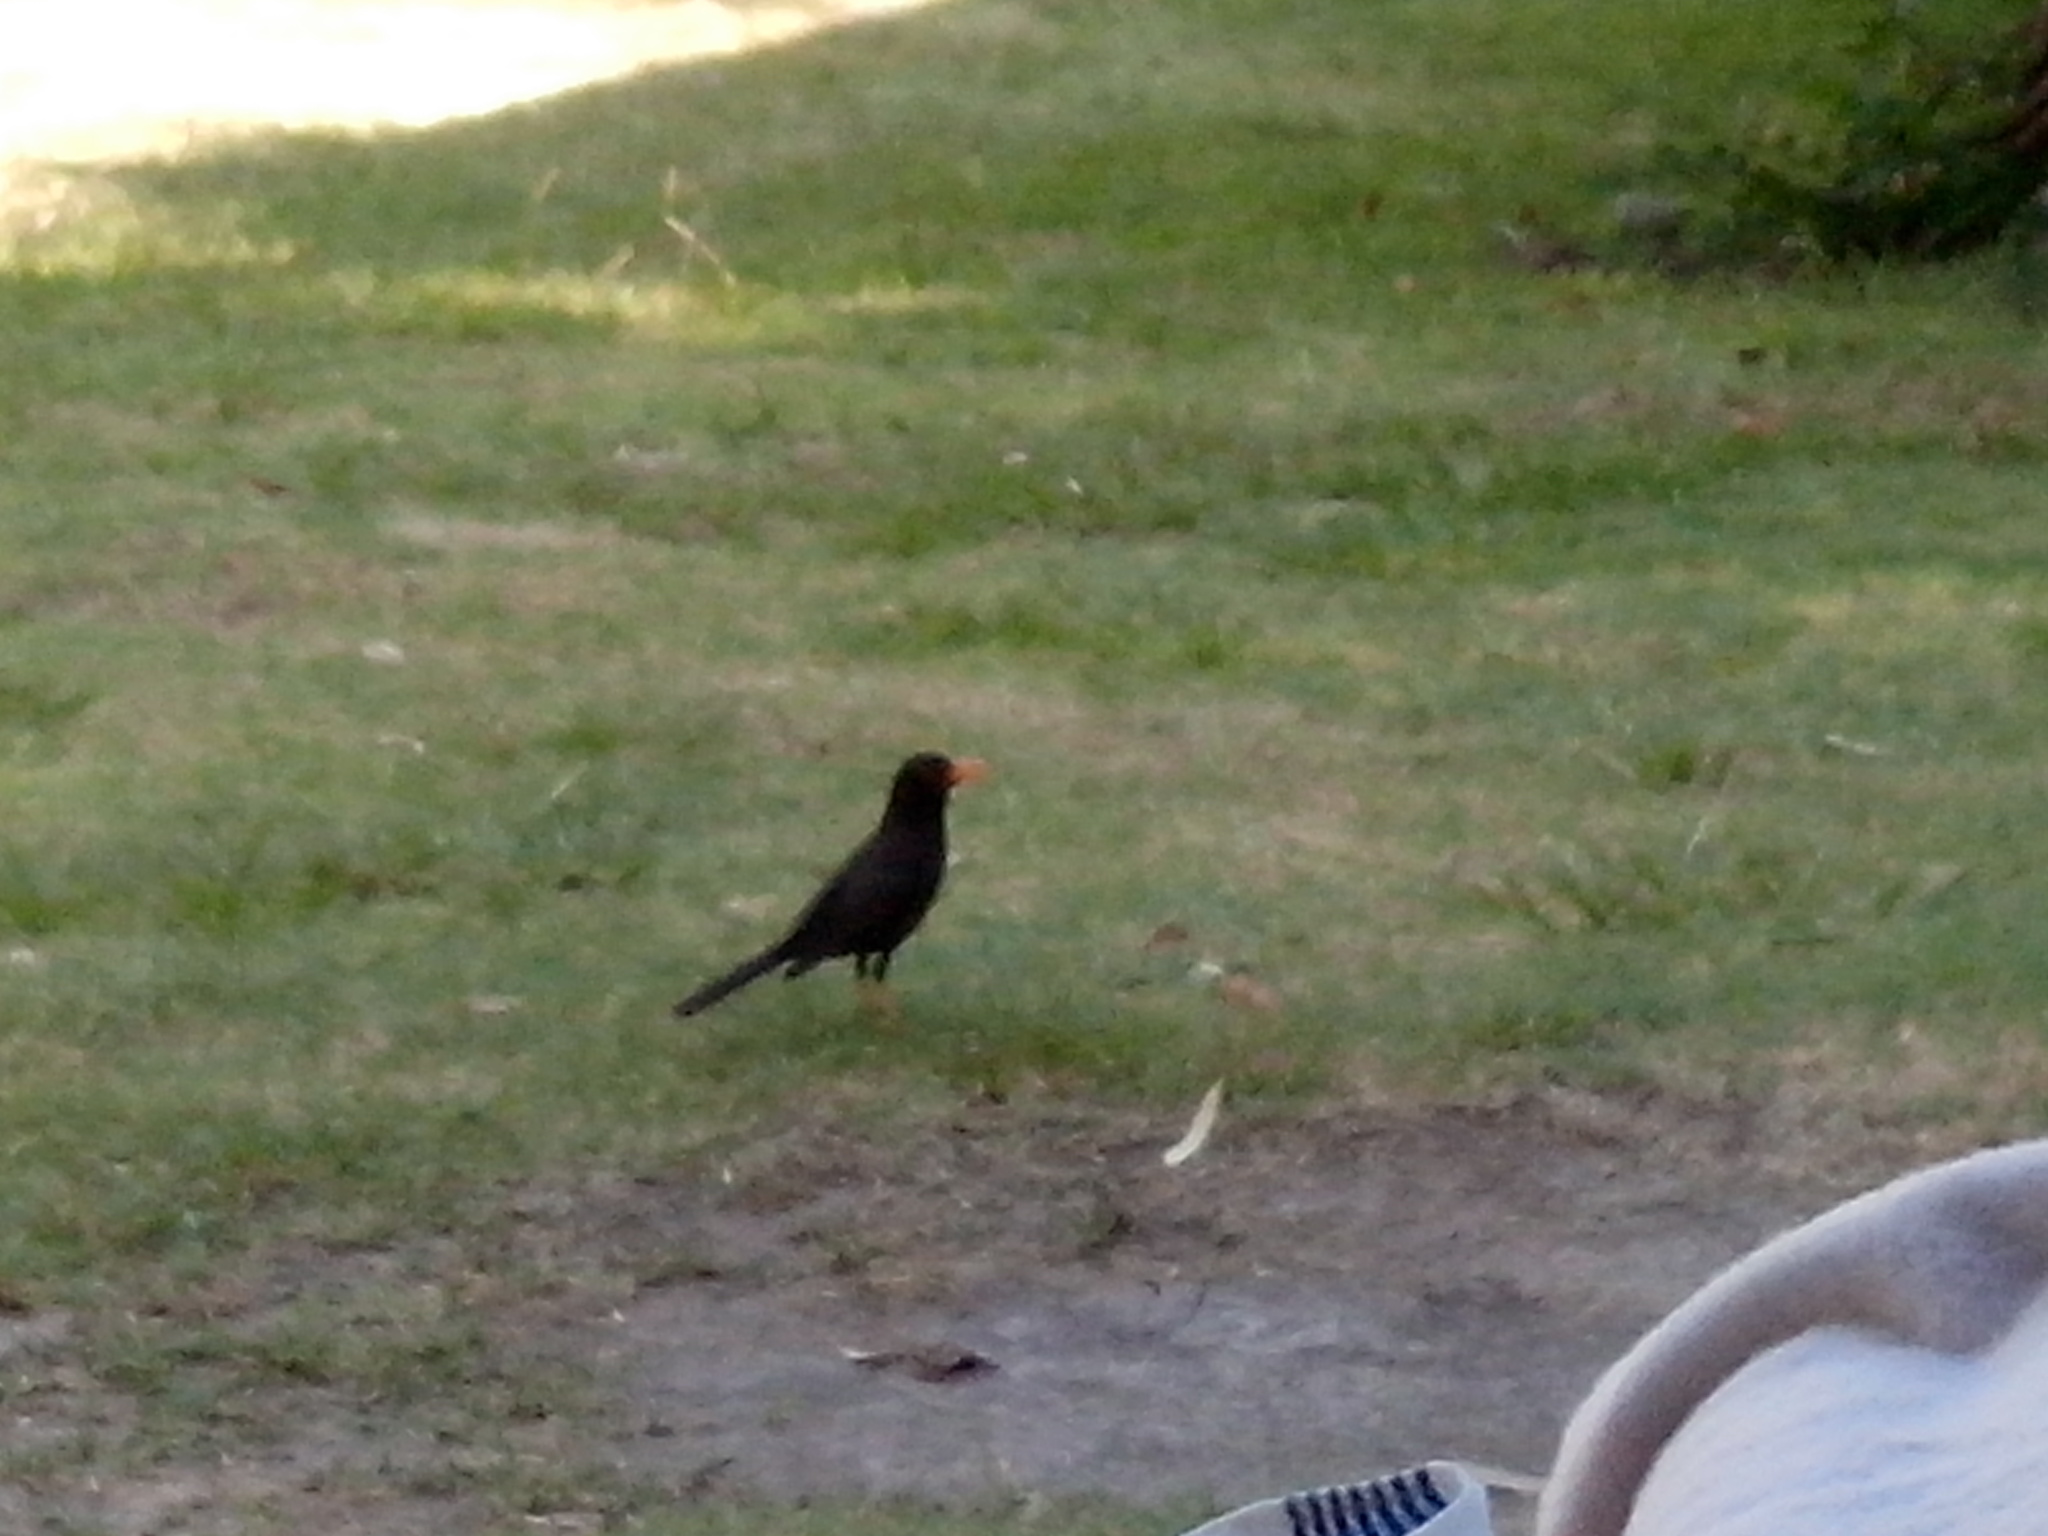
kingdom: Animalia
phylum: Chordata
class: Aves
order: Passeriformes
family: Turdidae
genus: Turdus
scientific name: Turdus chiguanco
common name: Chiguanco thrush
